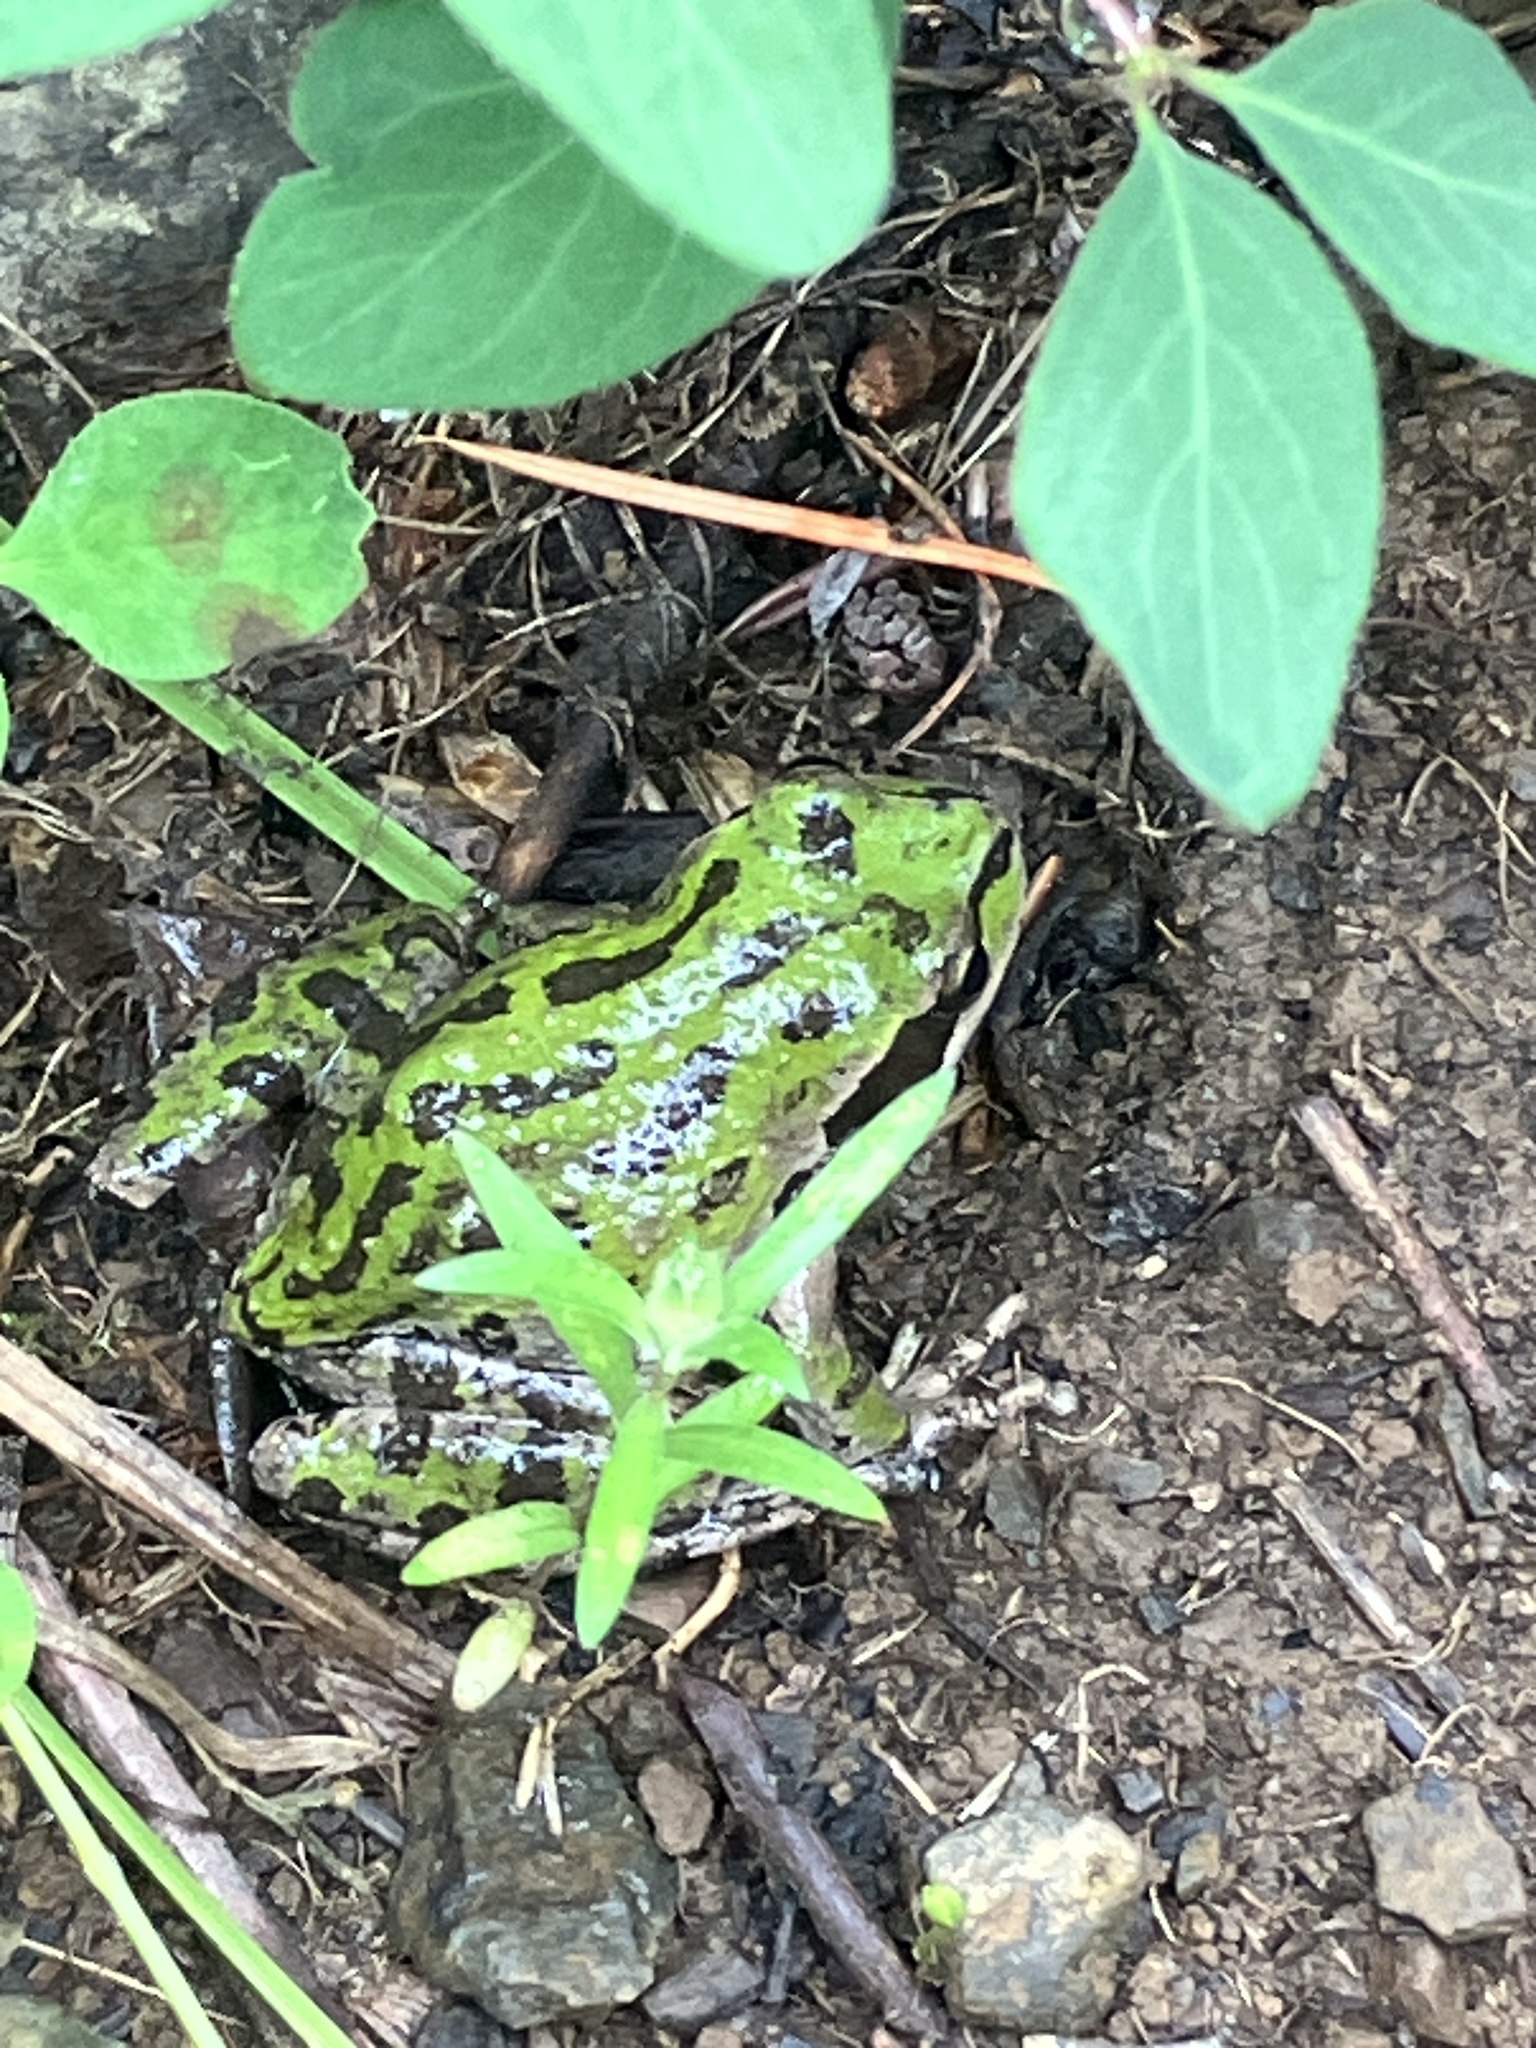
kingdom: Animalia
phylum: Chordata
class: Amphibia
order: Anura
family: Hylidae
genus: Pseudacris
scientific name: Pseudacris regilla
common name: Pacific chorus frog
